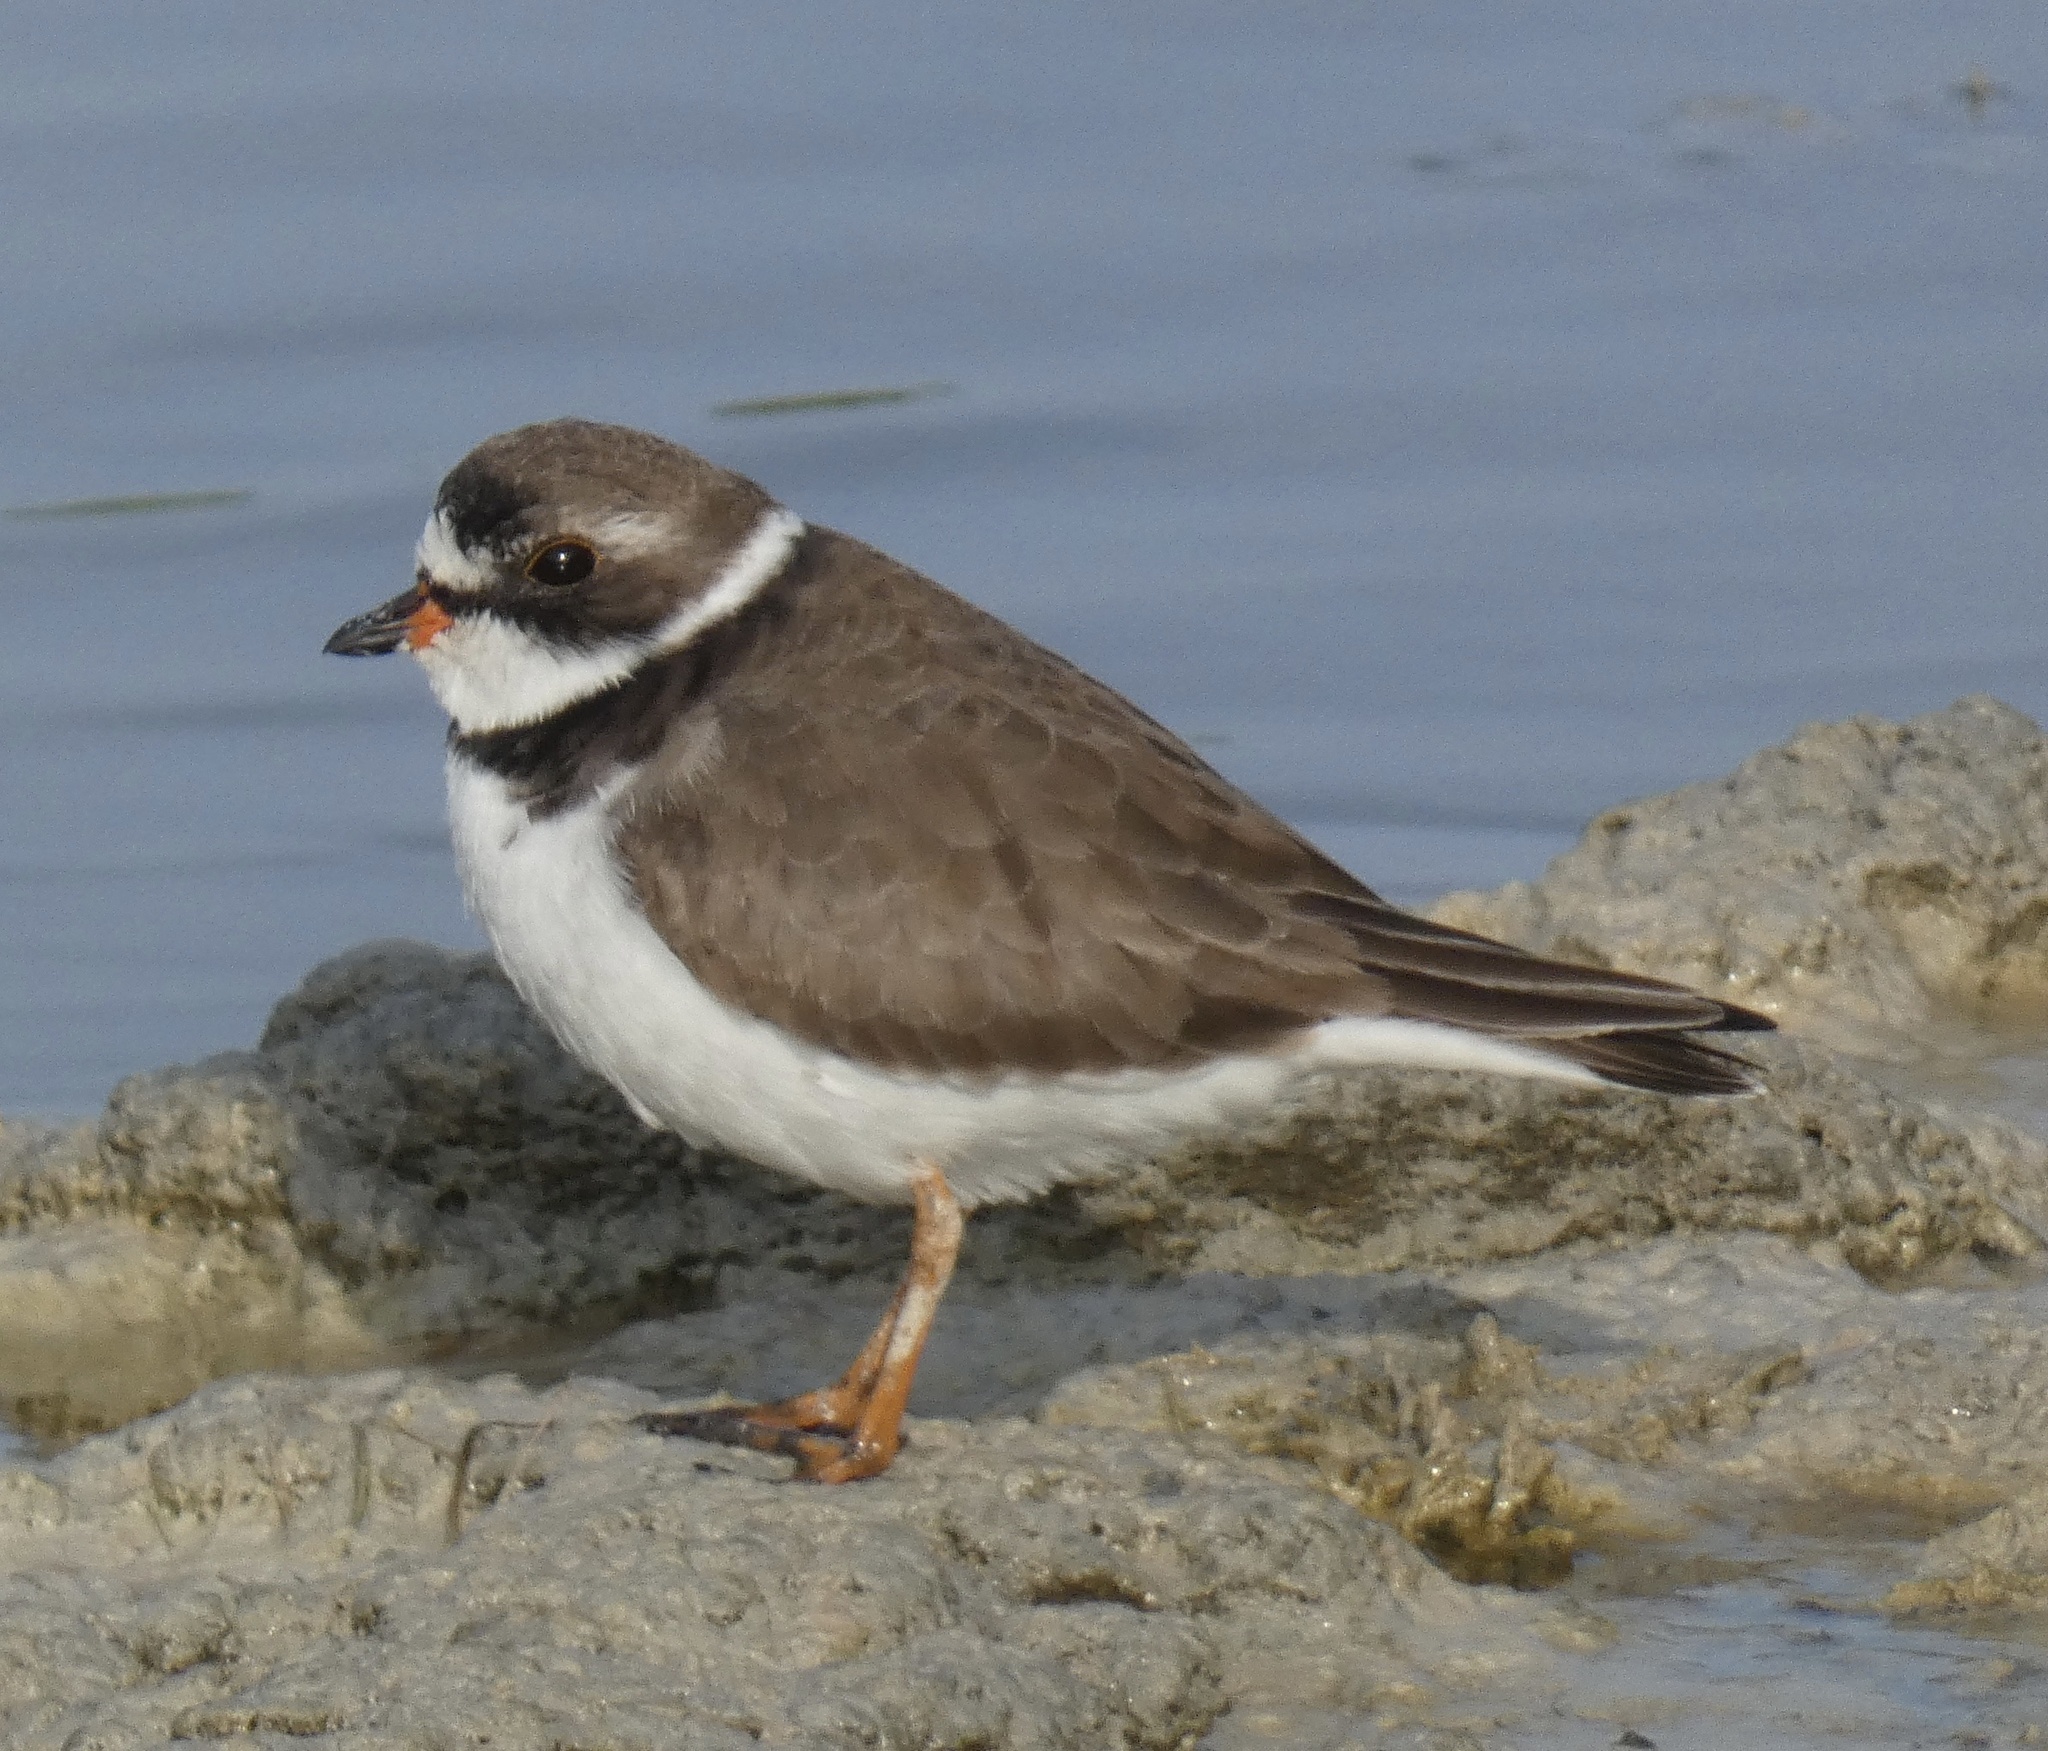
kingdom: Animalia
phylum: Chordata
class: Aves
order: Charadriiformes
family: Charadriidae
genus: Charadrius
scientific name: Charadrius semipalmatus
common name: Semipalmated plover
